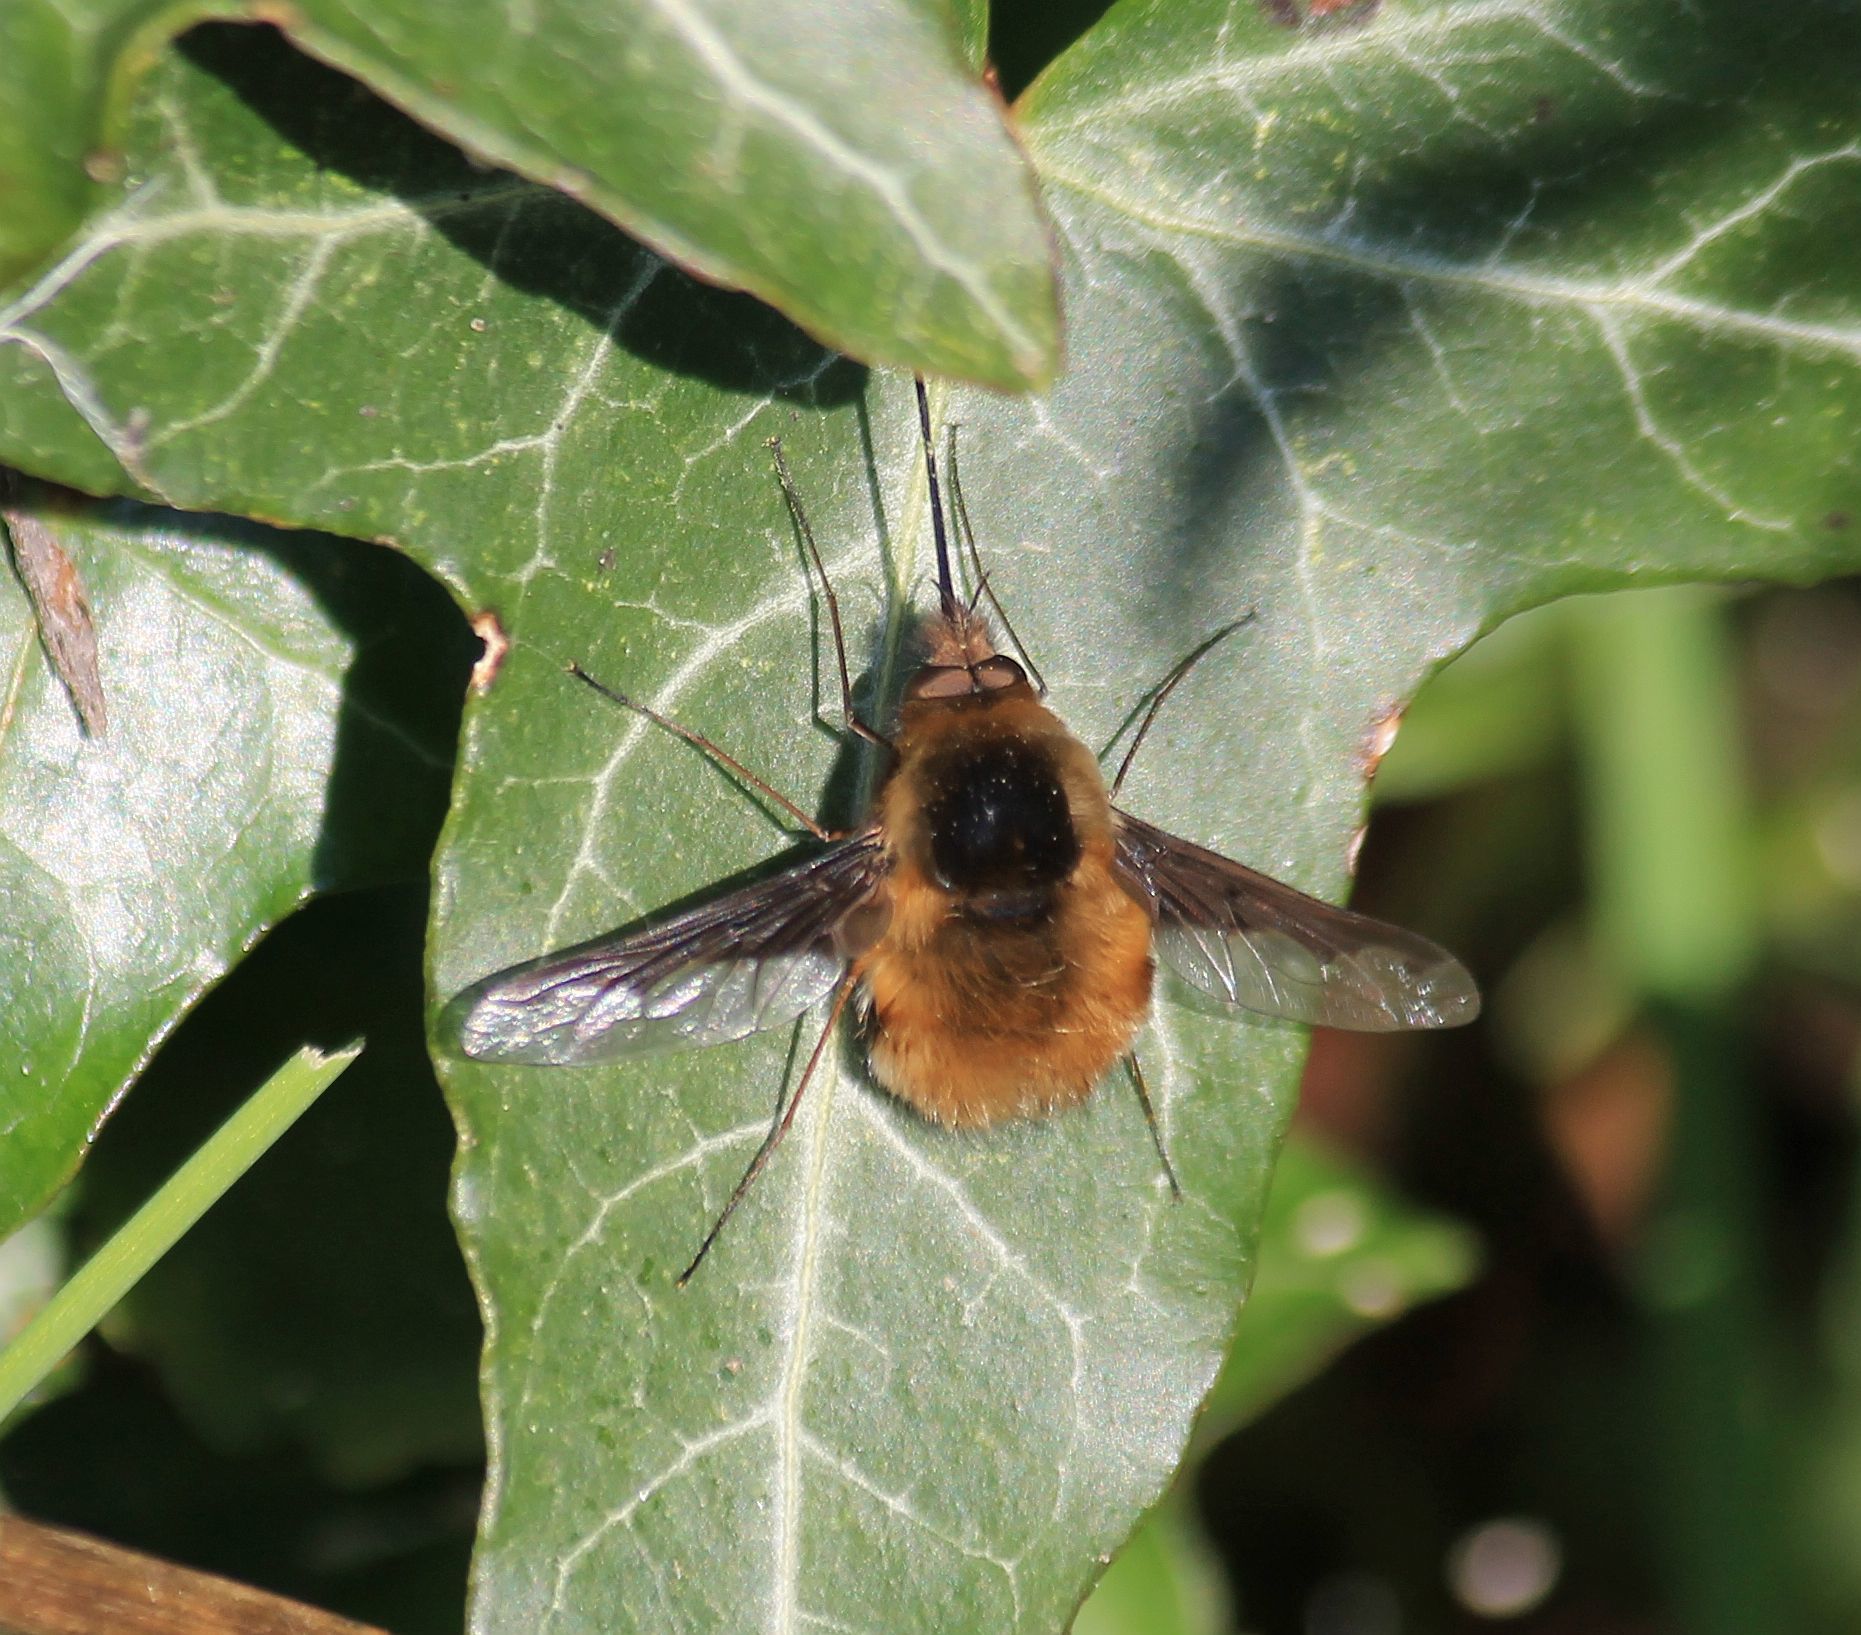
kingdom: Animalia
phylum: Arthropoda
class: Insecta
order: Diptera
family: Bombyliidae
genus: Bombylius
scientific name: Bombylius major
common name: Bee fly
